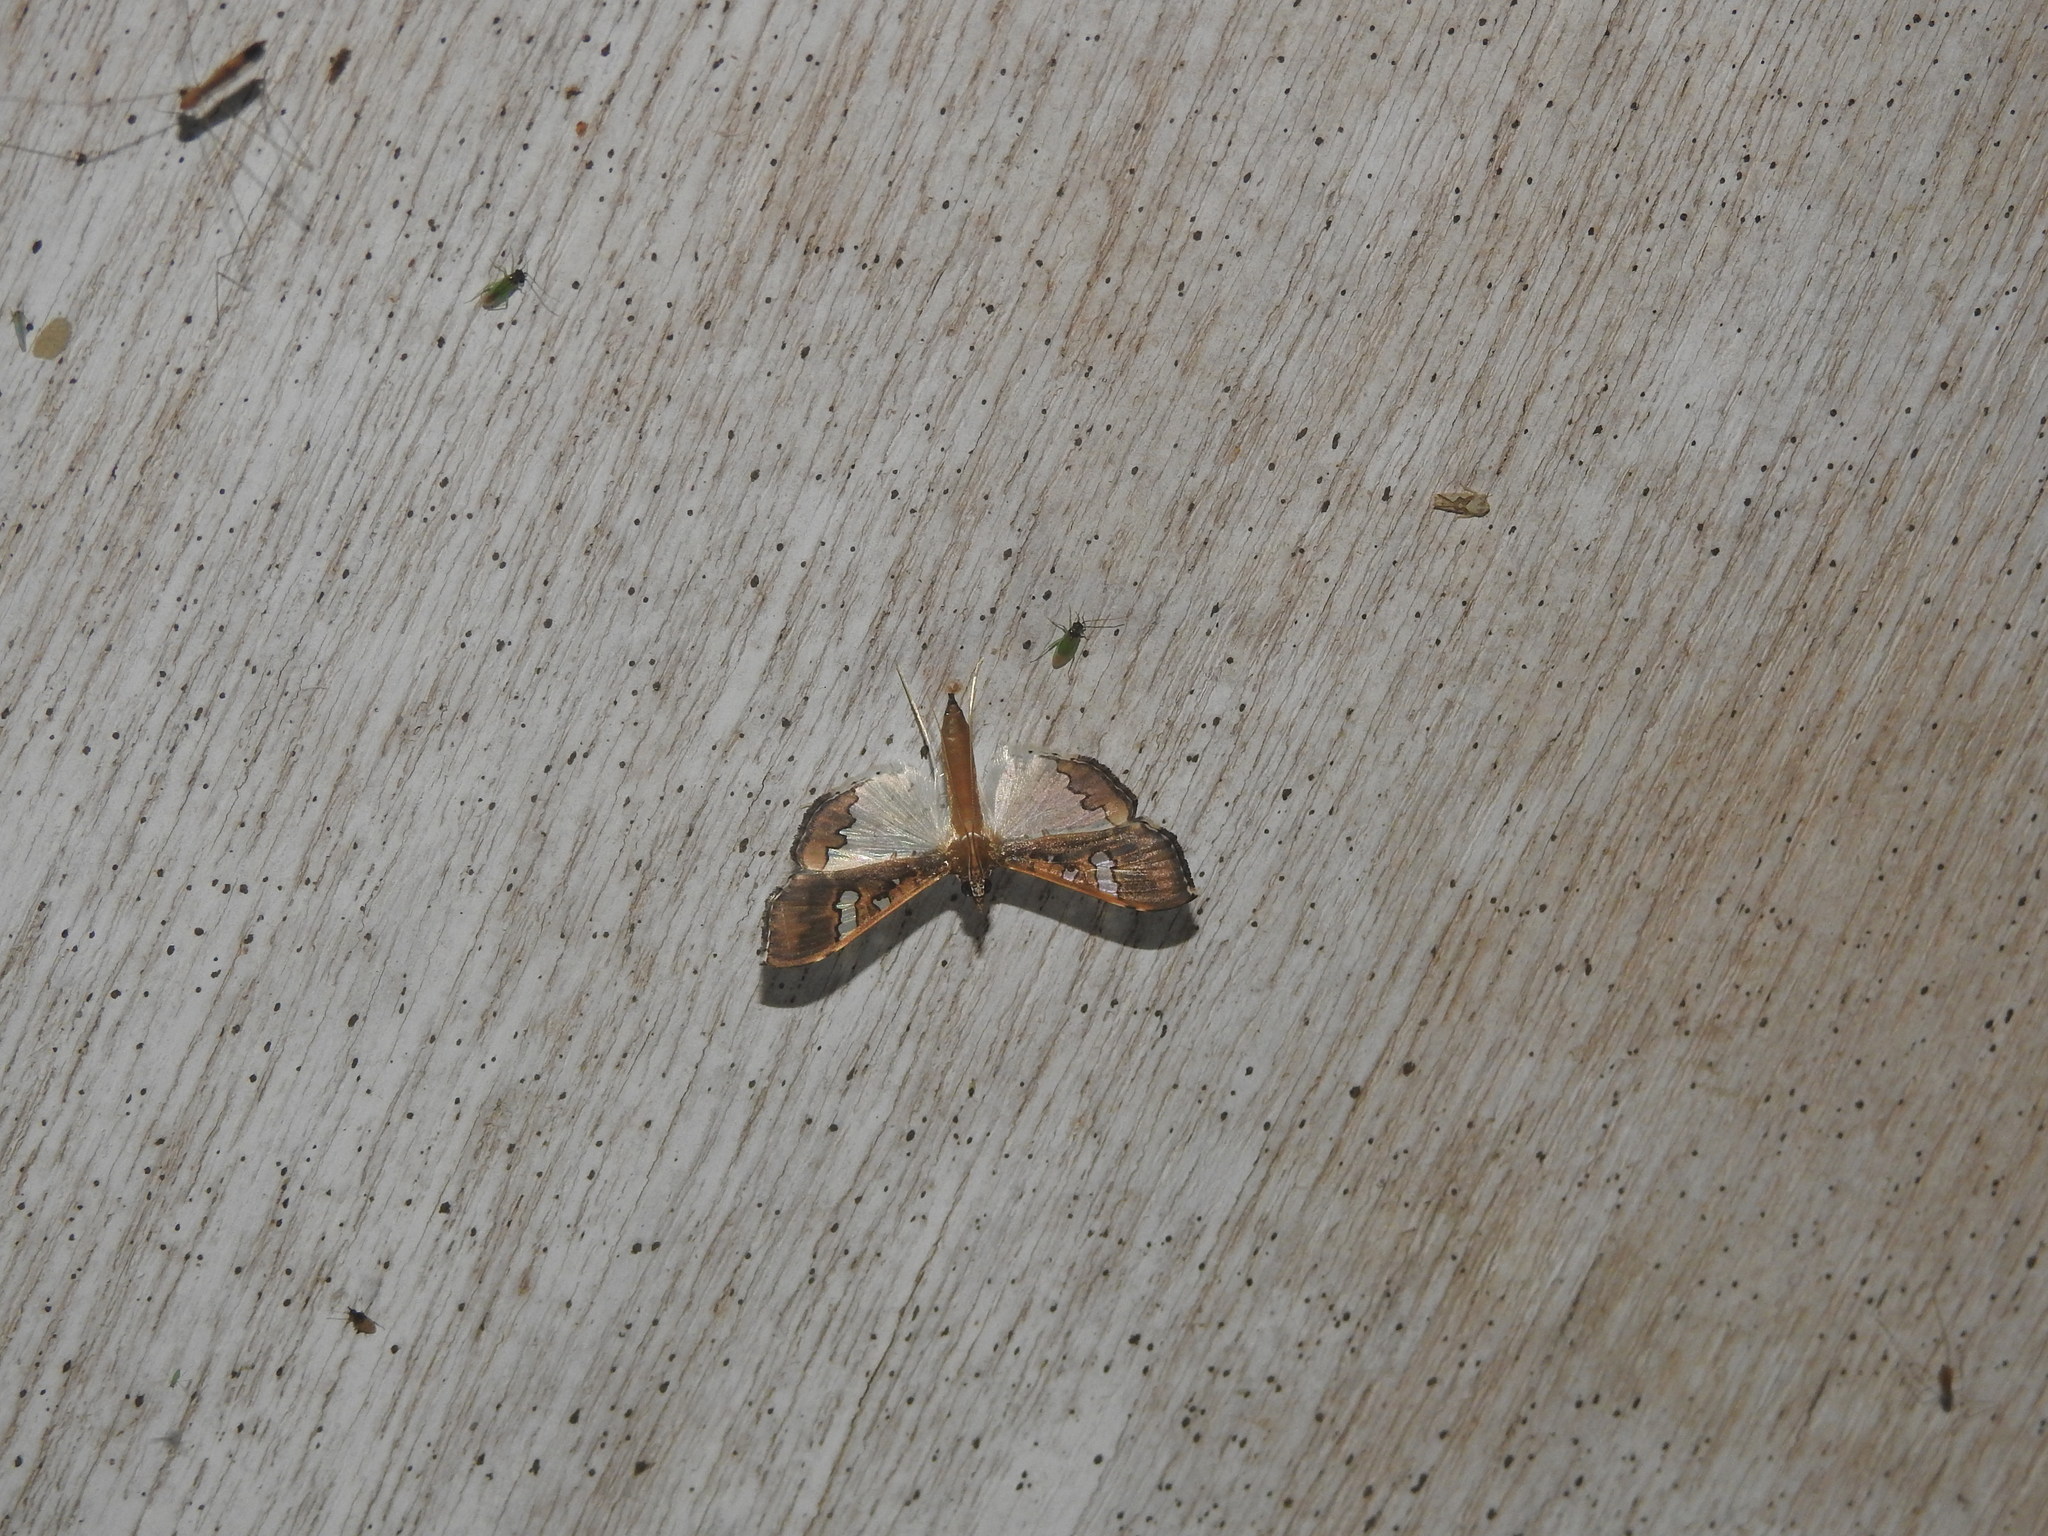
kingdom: Animalia
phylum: Arthropoda
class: Insecta
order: Lepidoptera
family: Crambidae
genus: Maruca
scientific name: Maruca vitrata
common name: Maruca pod borer
